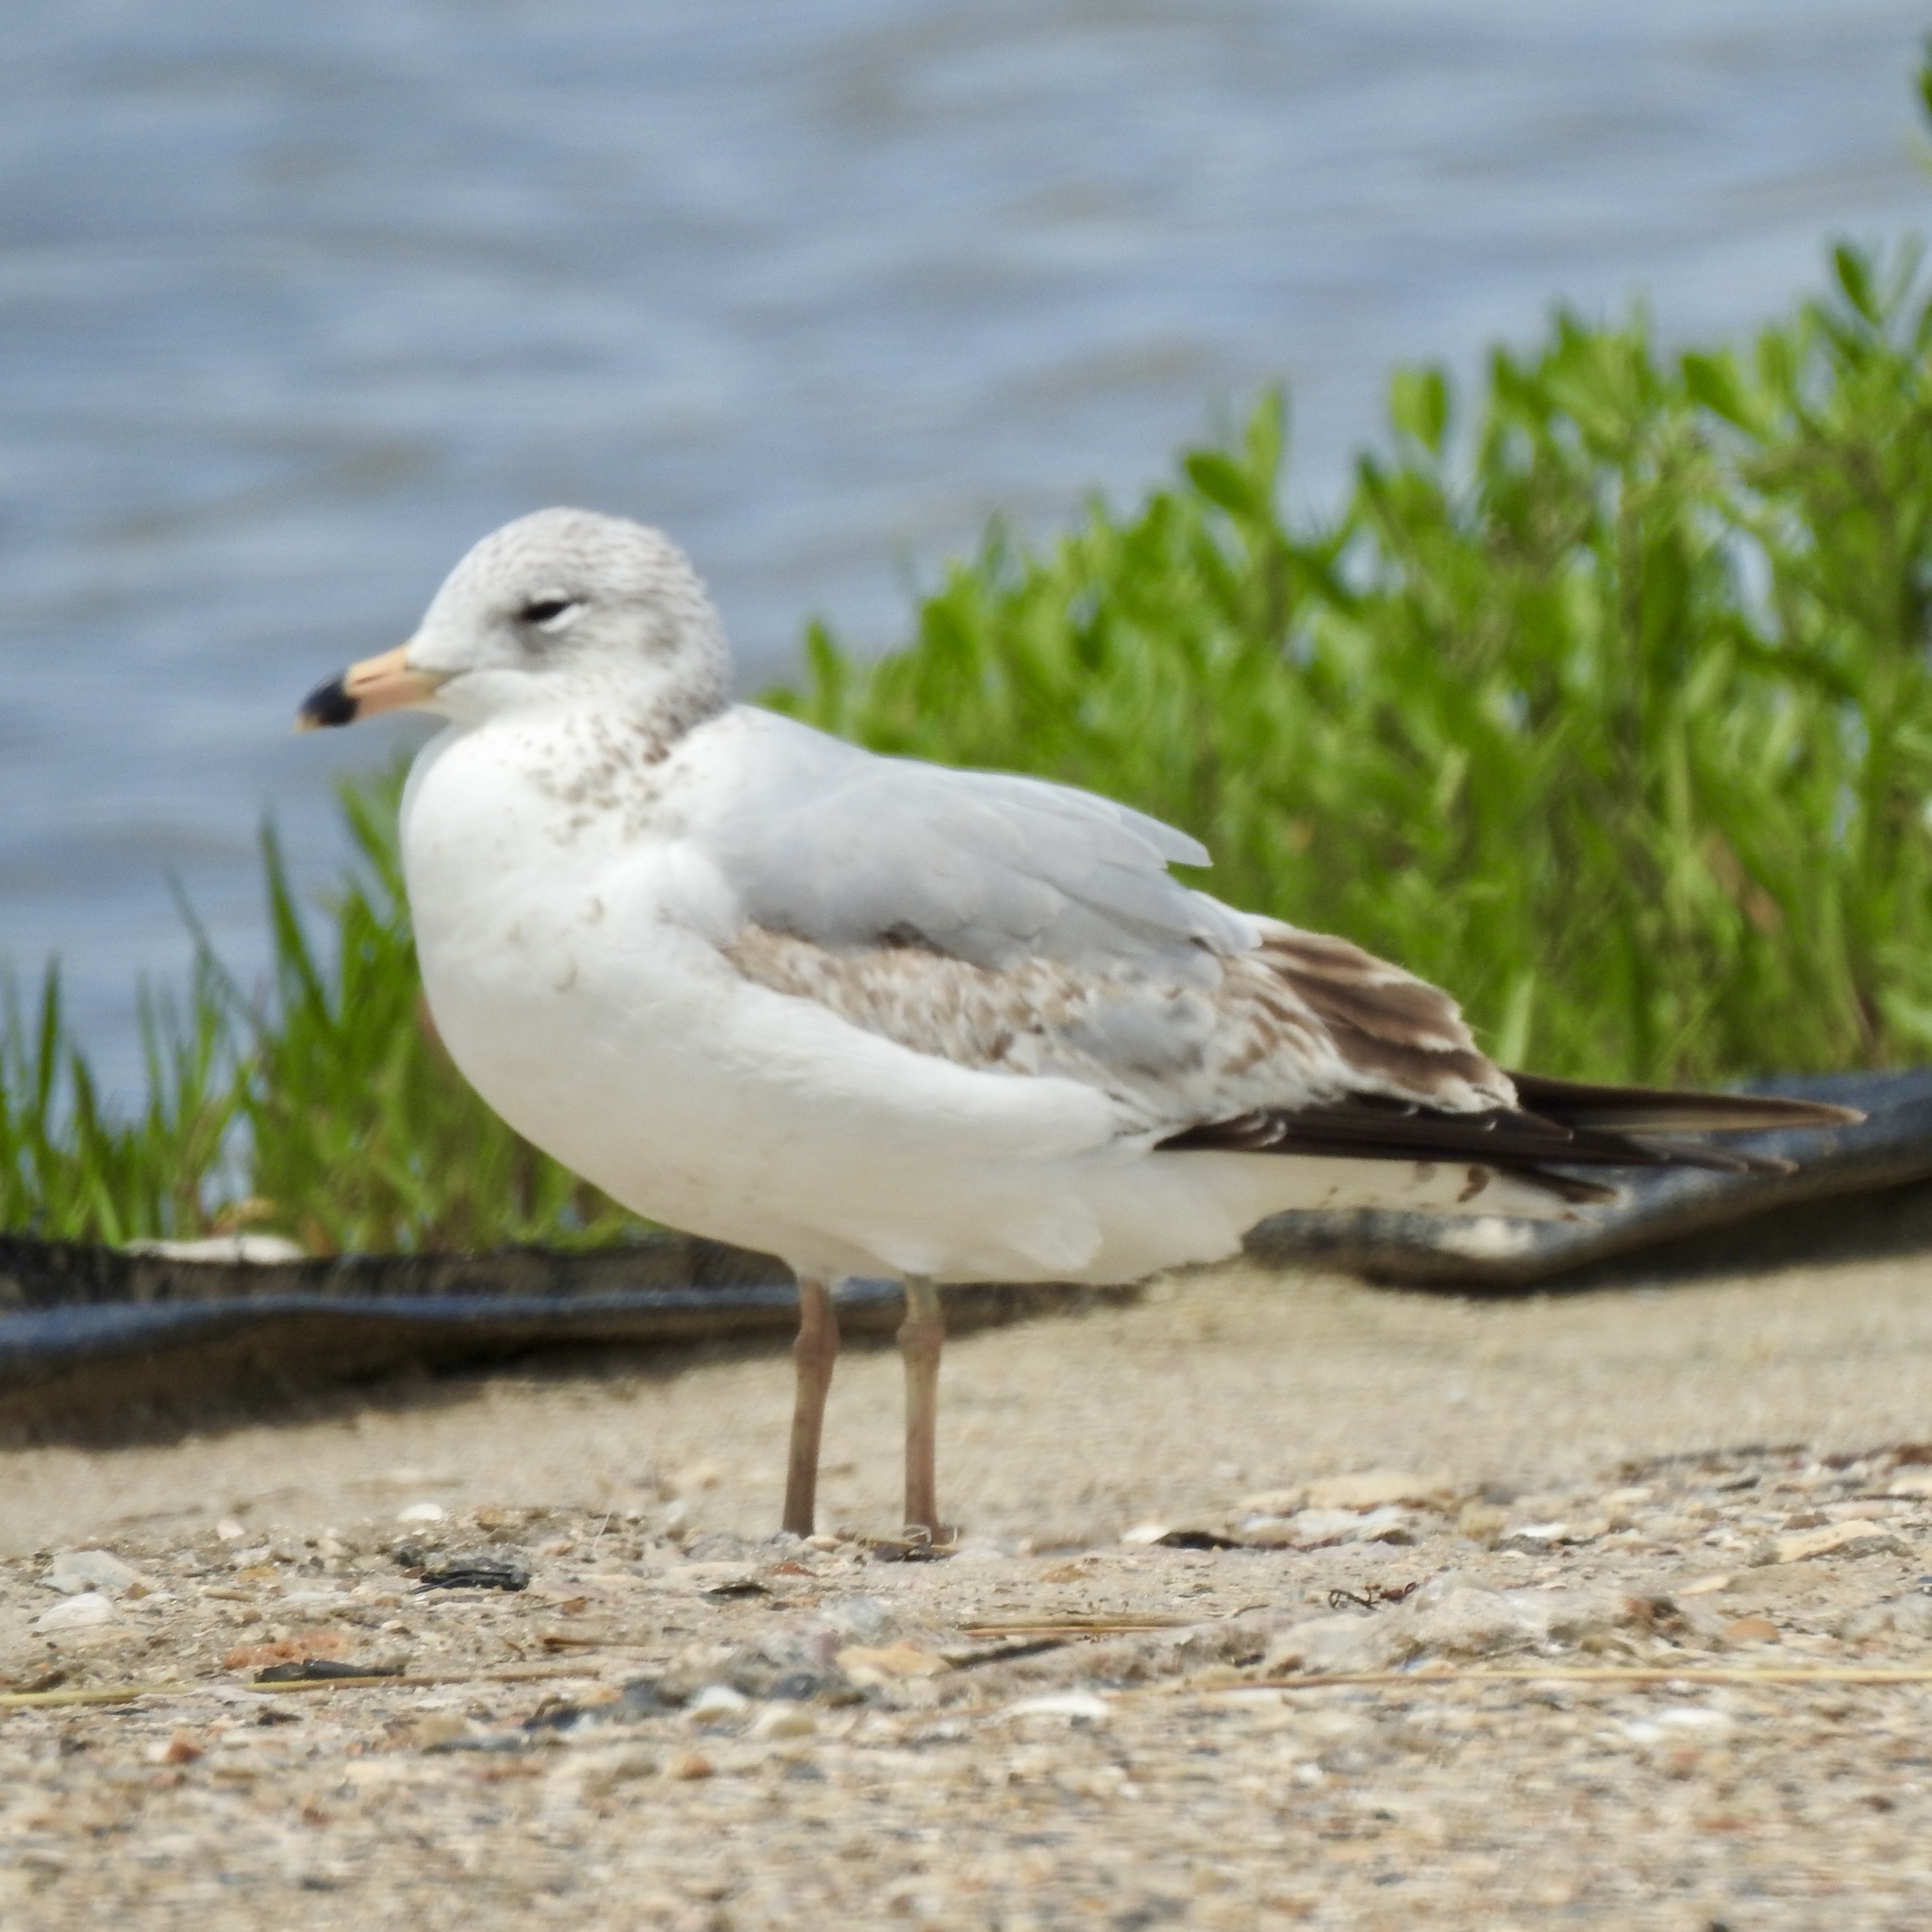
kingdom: Animalia
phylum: Chordata
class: Aves
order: Charadriiformes
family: Laridae
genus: Larus
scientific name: Larus delawarensis
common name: Ring-billed gull
